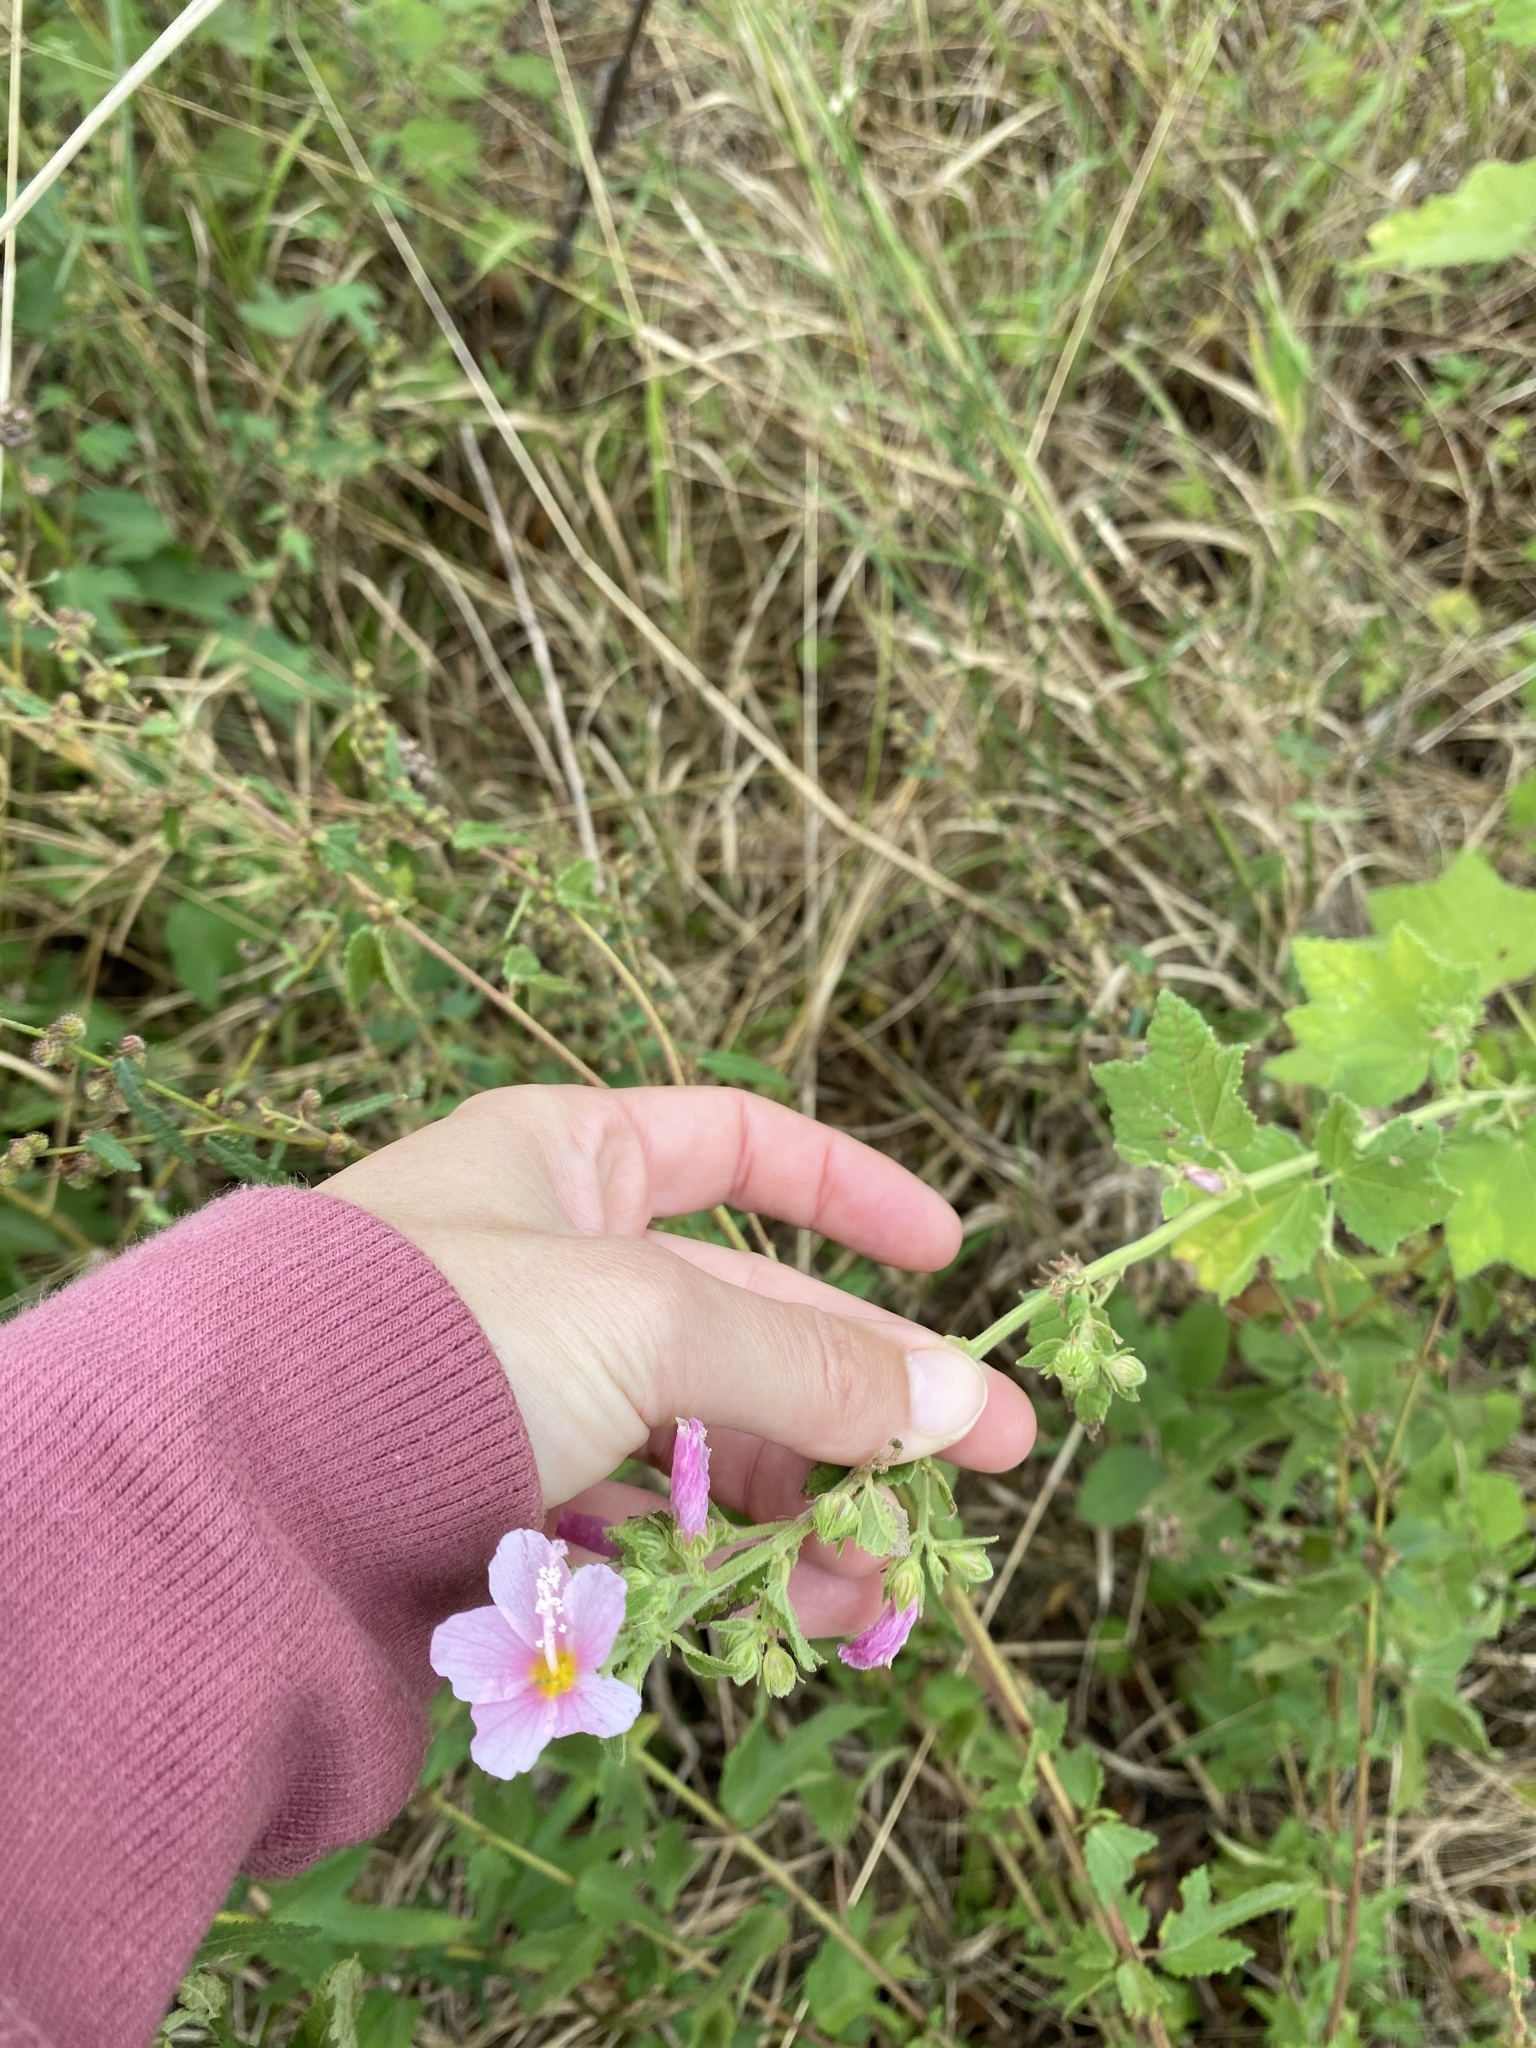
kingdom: Plantae
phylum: Tracheophyta
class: Magnoliopsida
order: Malvales
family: Malvaceae
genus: Pavonia
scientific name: Pavonia columella
